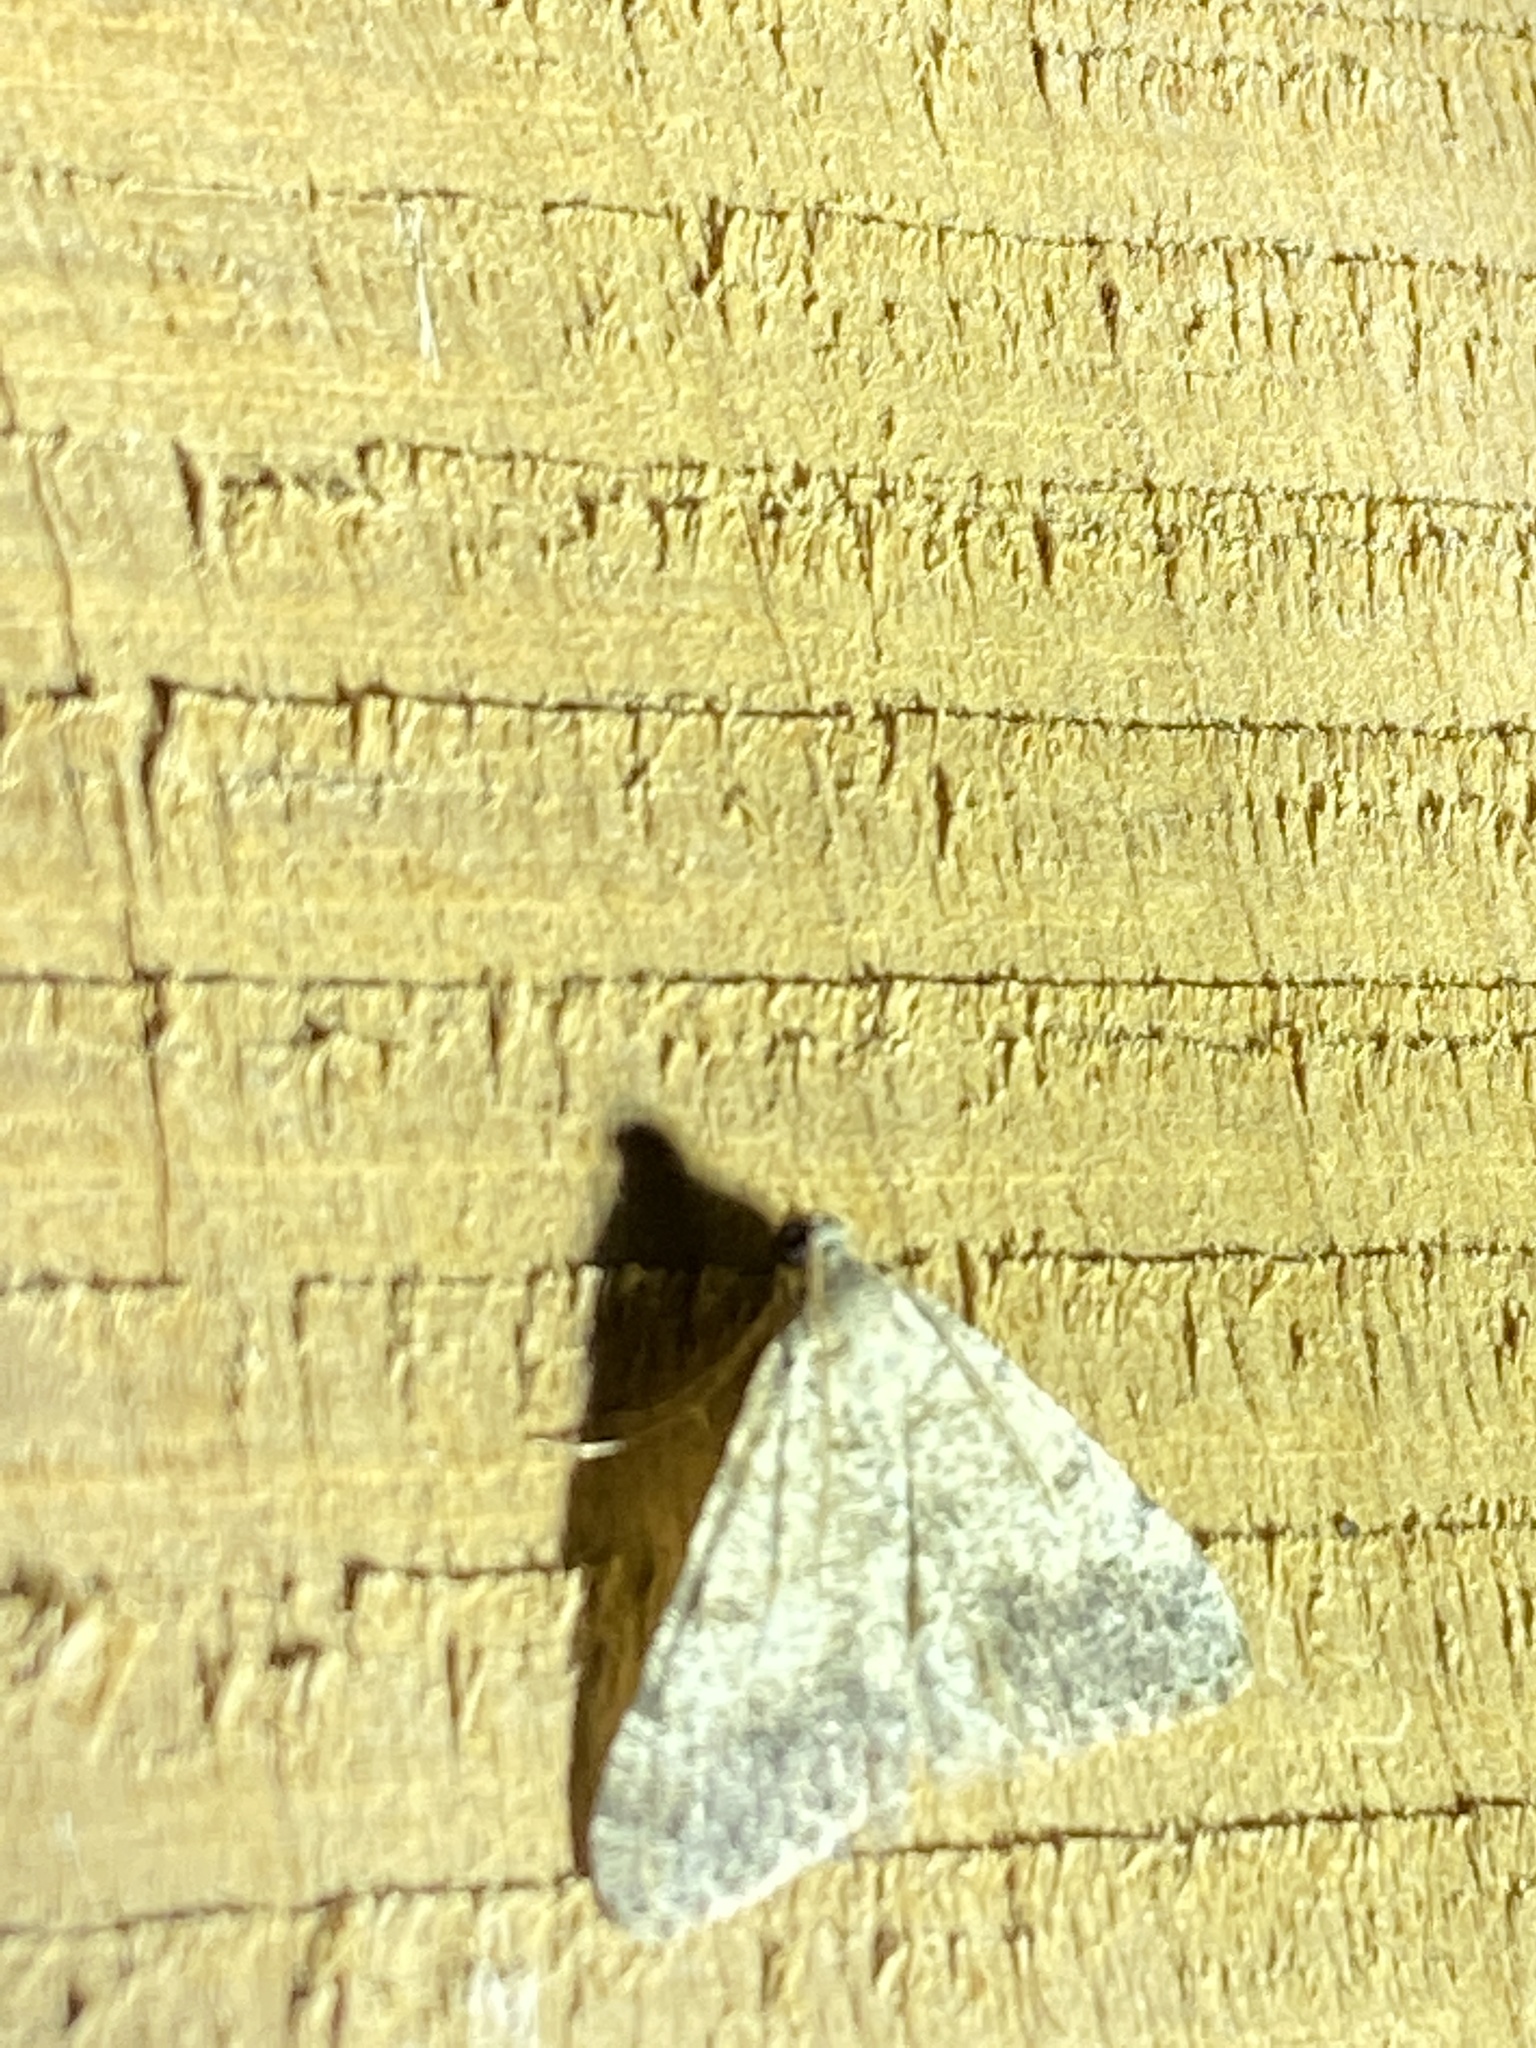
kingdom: Animalia
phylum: Arthropoda
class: Insecta
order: Lepidoptera
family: Geometridae
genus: Digrammia
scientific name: Digrammia colorata
